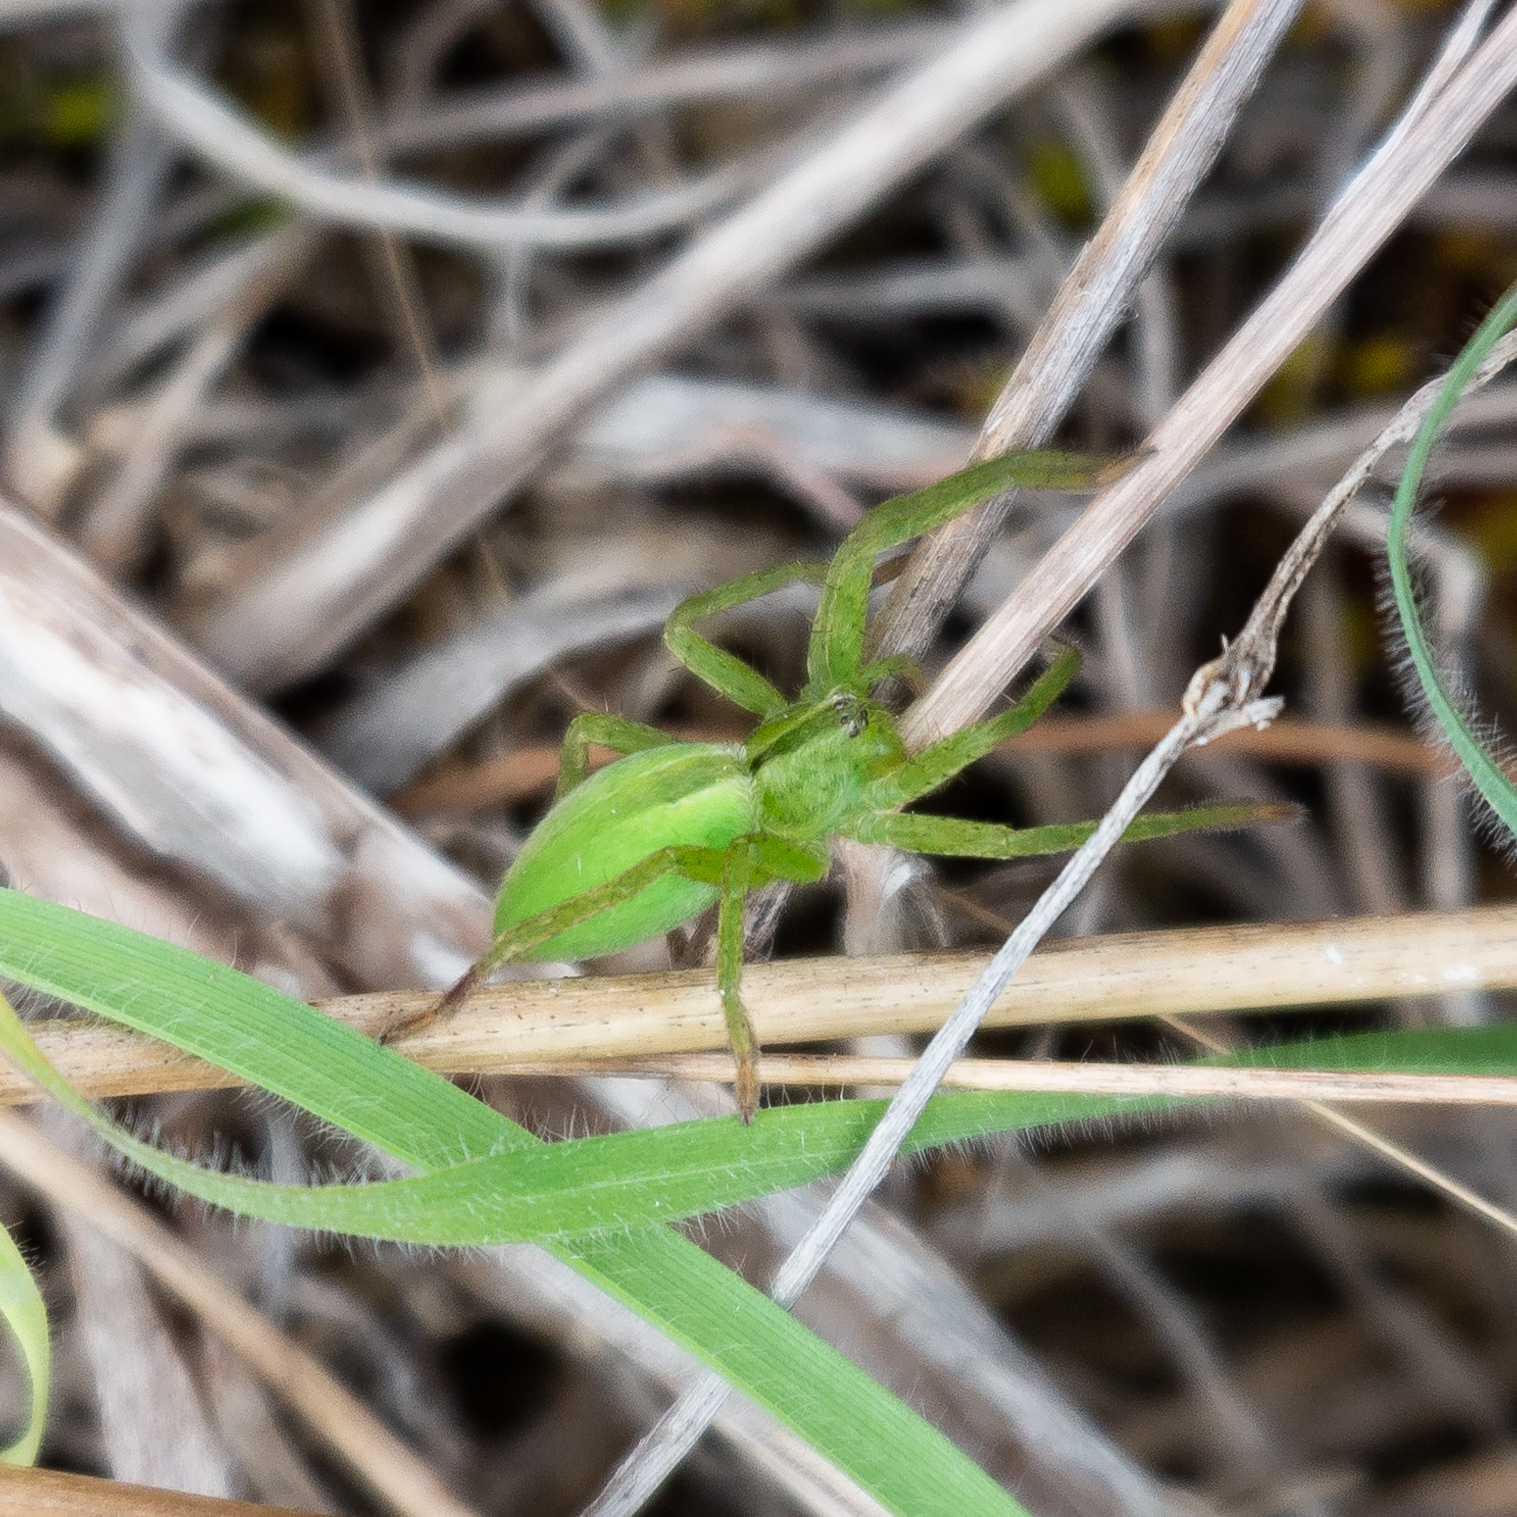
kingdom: Animalia
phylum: Arthropoda
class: Arachnida
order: Araneae
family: Sparassidae
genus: Micrommata
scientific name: Micrommata ligurina
